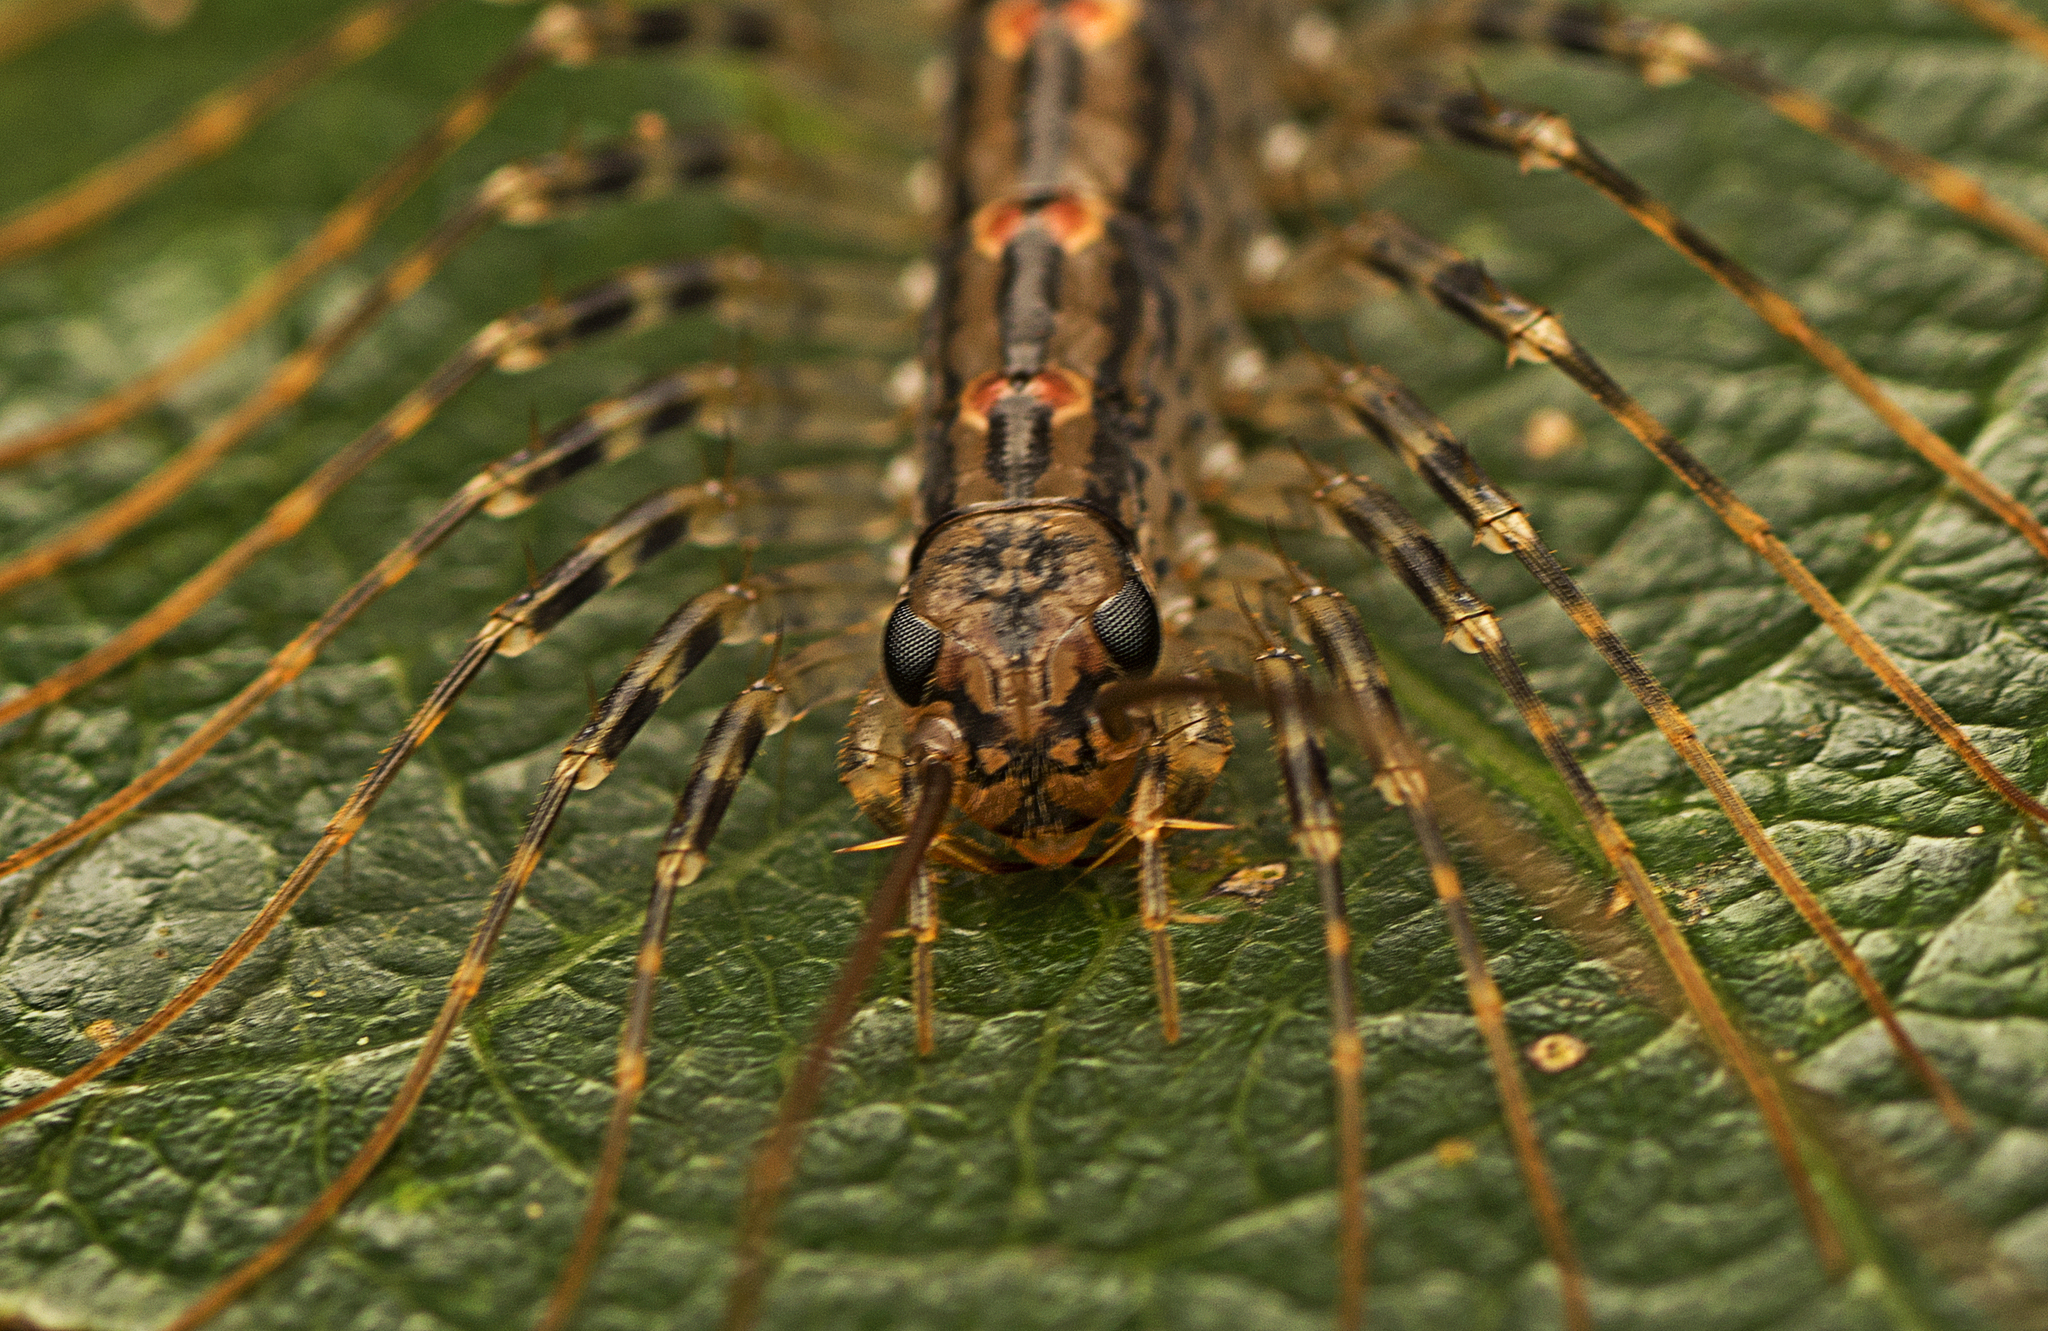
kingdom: Animalia
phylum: Arthropoda
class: Chilopoda
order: Scutigeromorpha
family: Scutigeridae
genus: Allothereua
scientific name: Allothereua maculata
